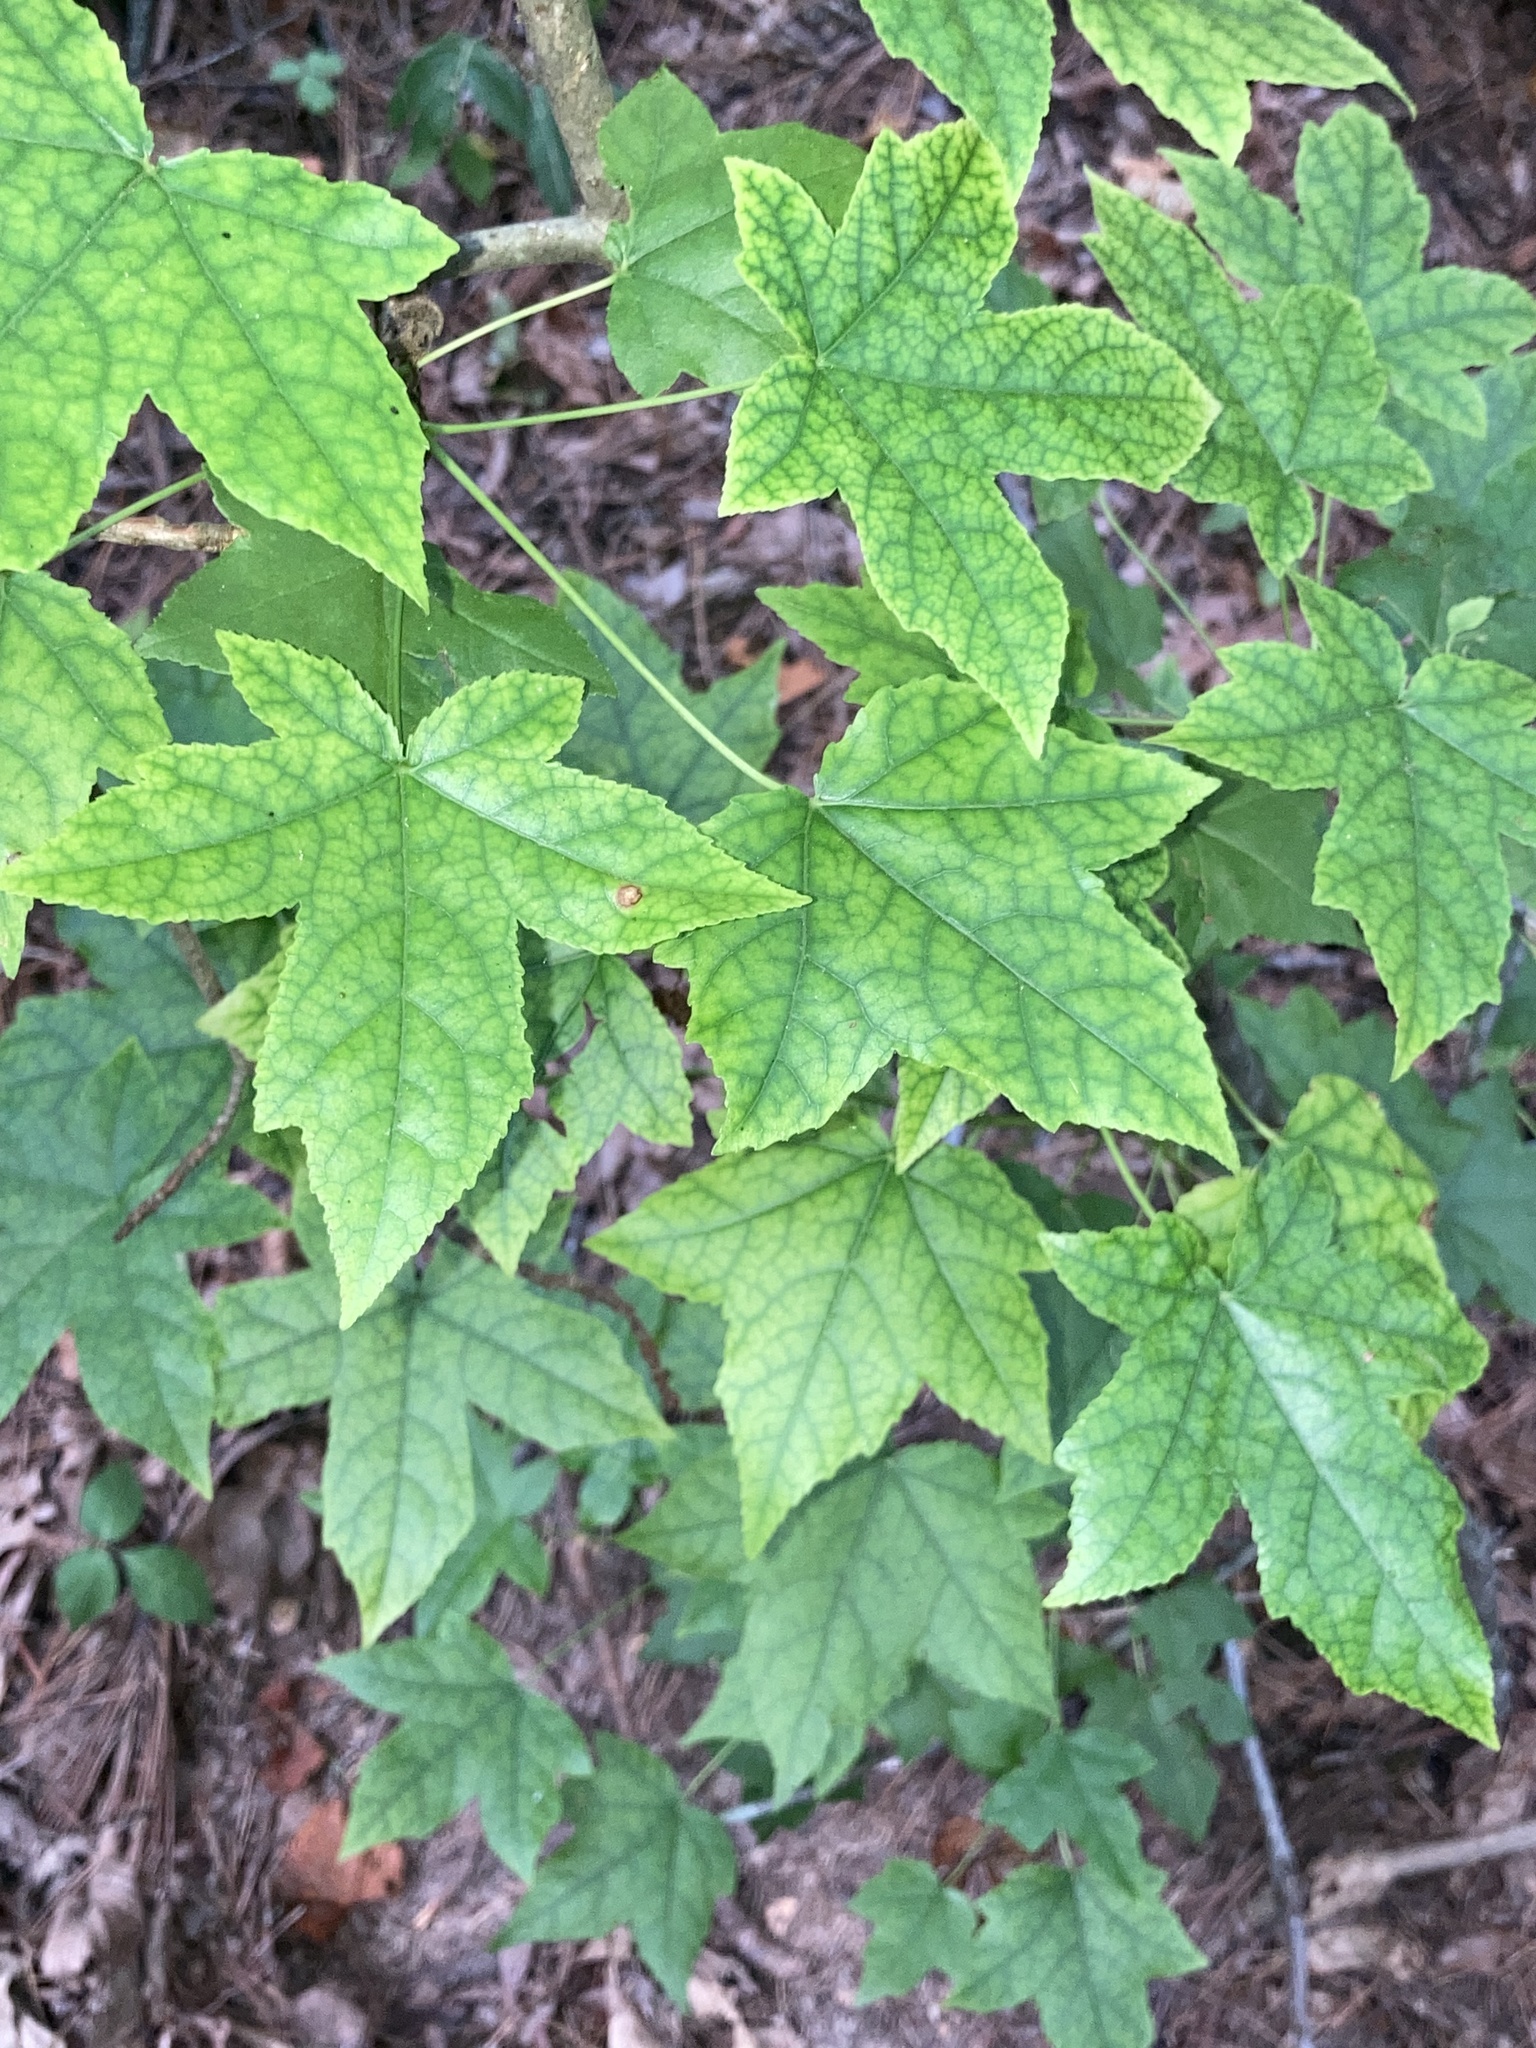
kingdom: Plantae
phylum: Tracheophyta
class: Magnoliopsida
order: Saxifragales
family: Altingiaceae
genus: Liquidambar
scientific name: Liquidambar styraciflua
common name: Sweet gum
